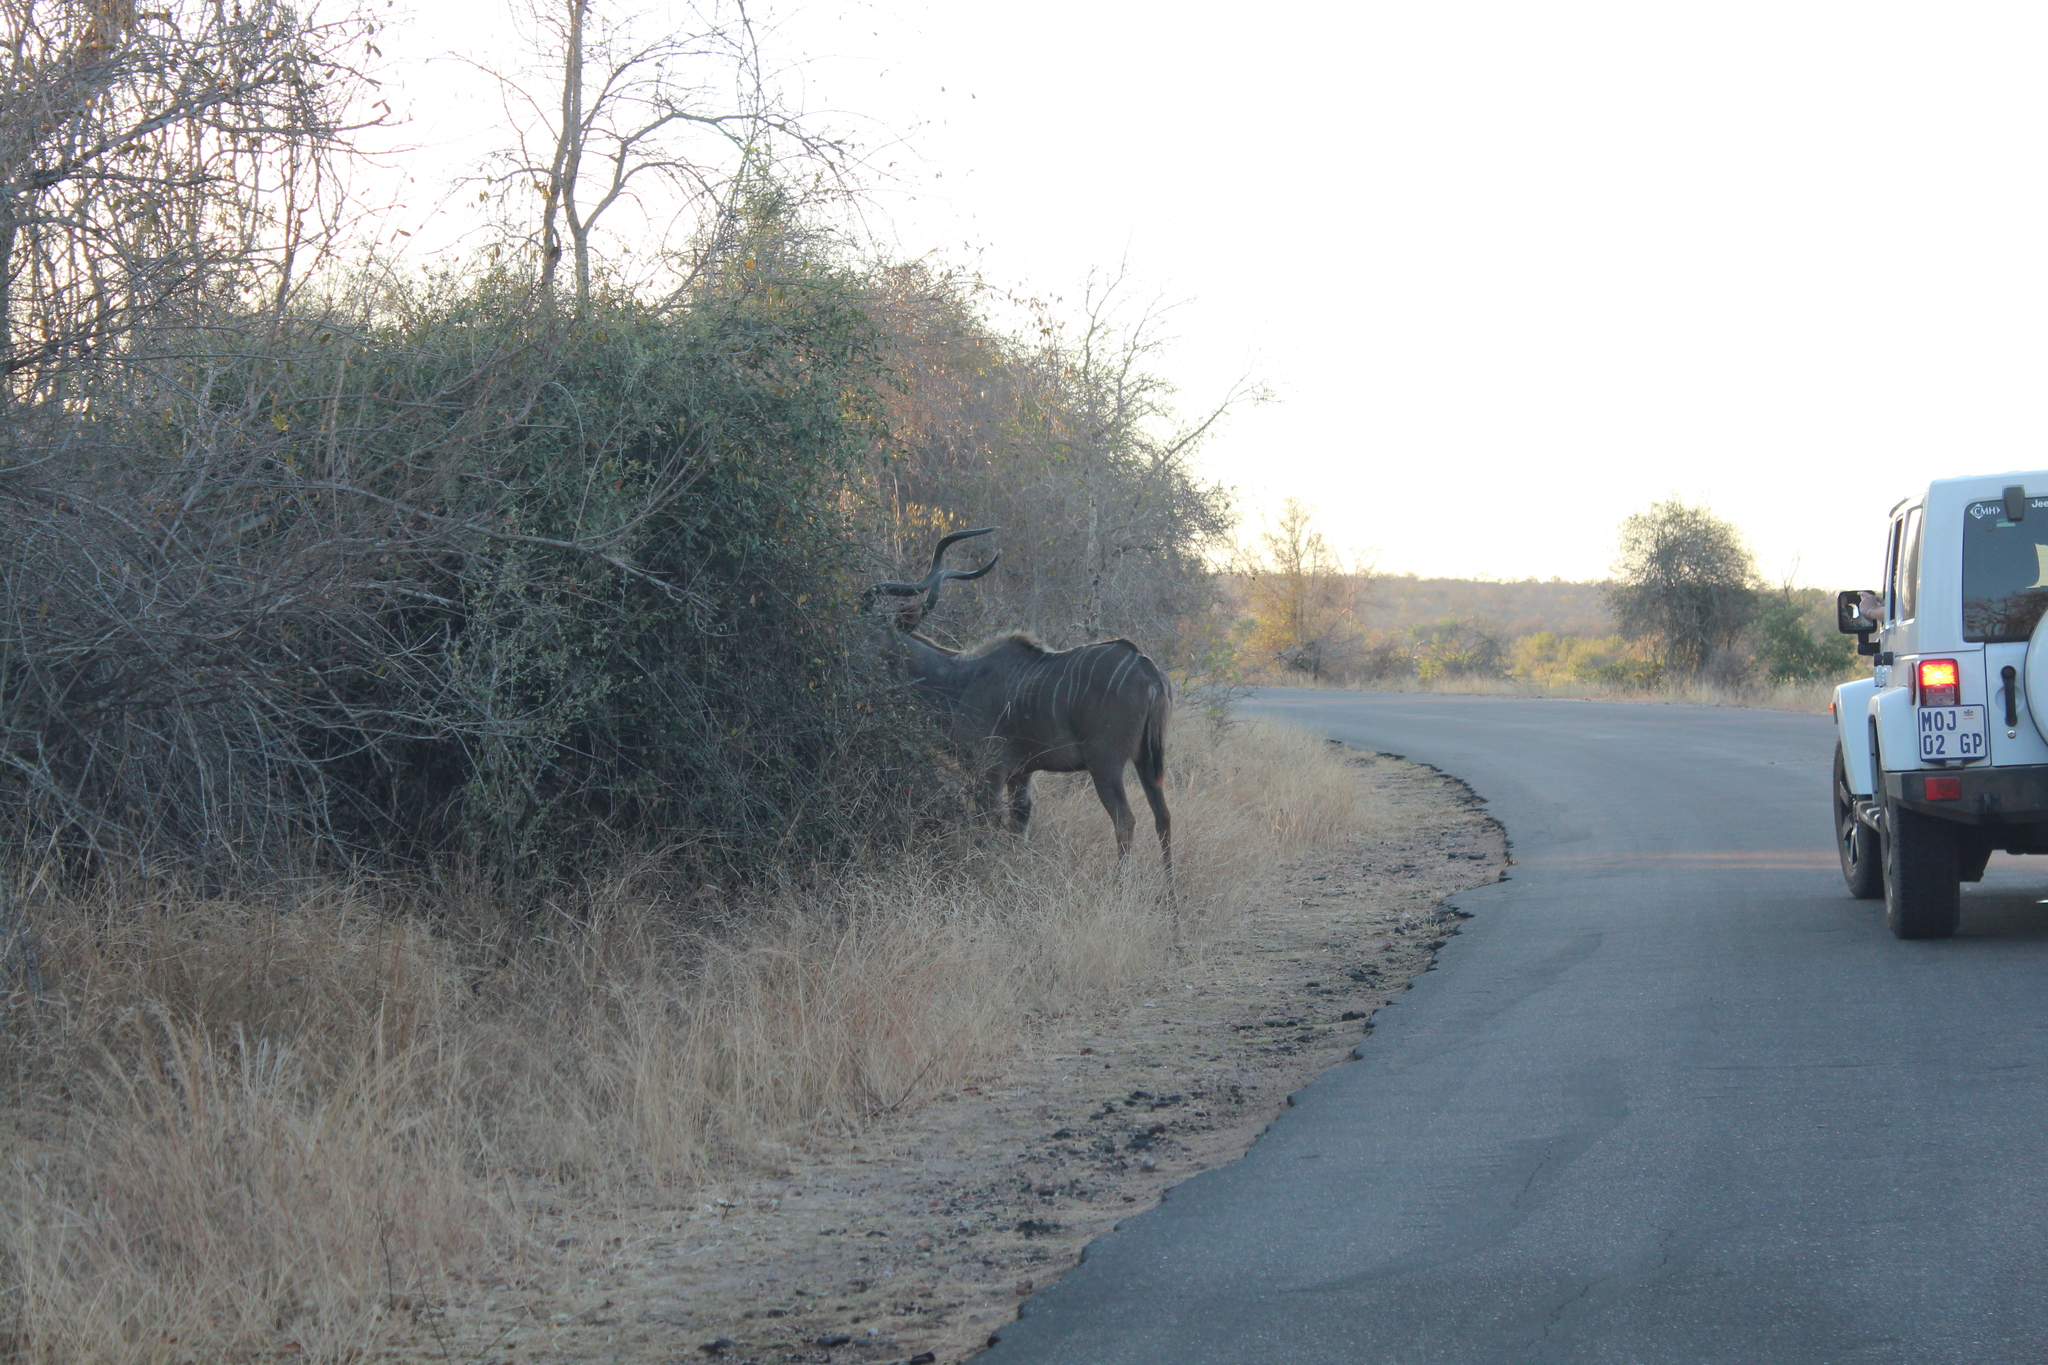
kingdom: Animalia
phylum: Chordata
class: Mammalia
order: Artiodactyla
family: Bovidae
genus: Tragelaphus
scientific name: Tragelaphus strepsiceros
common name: Greater kudu
